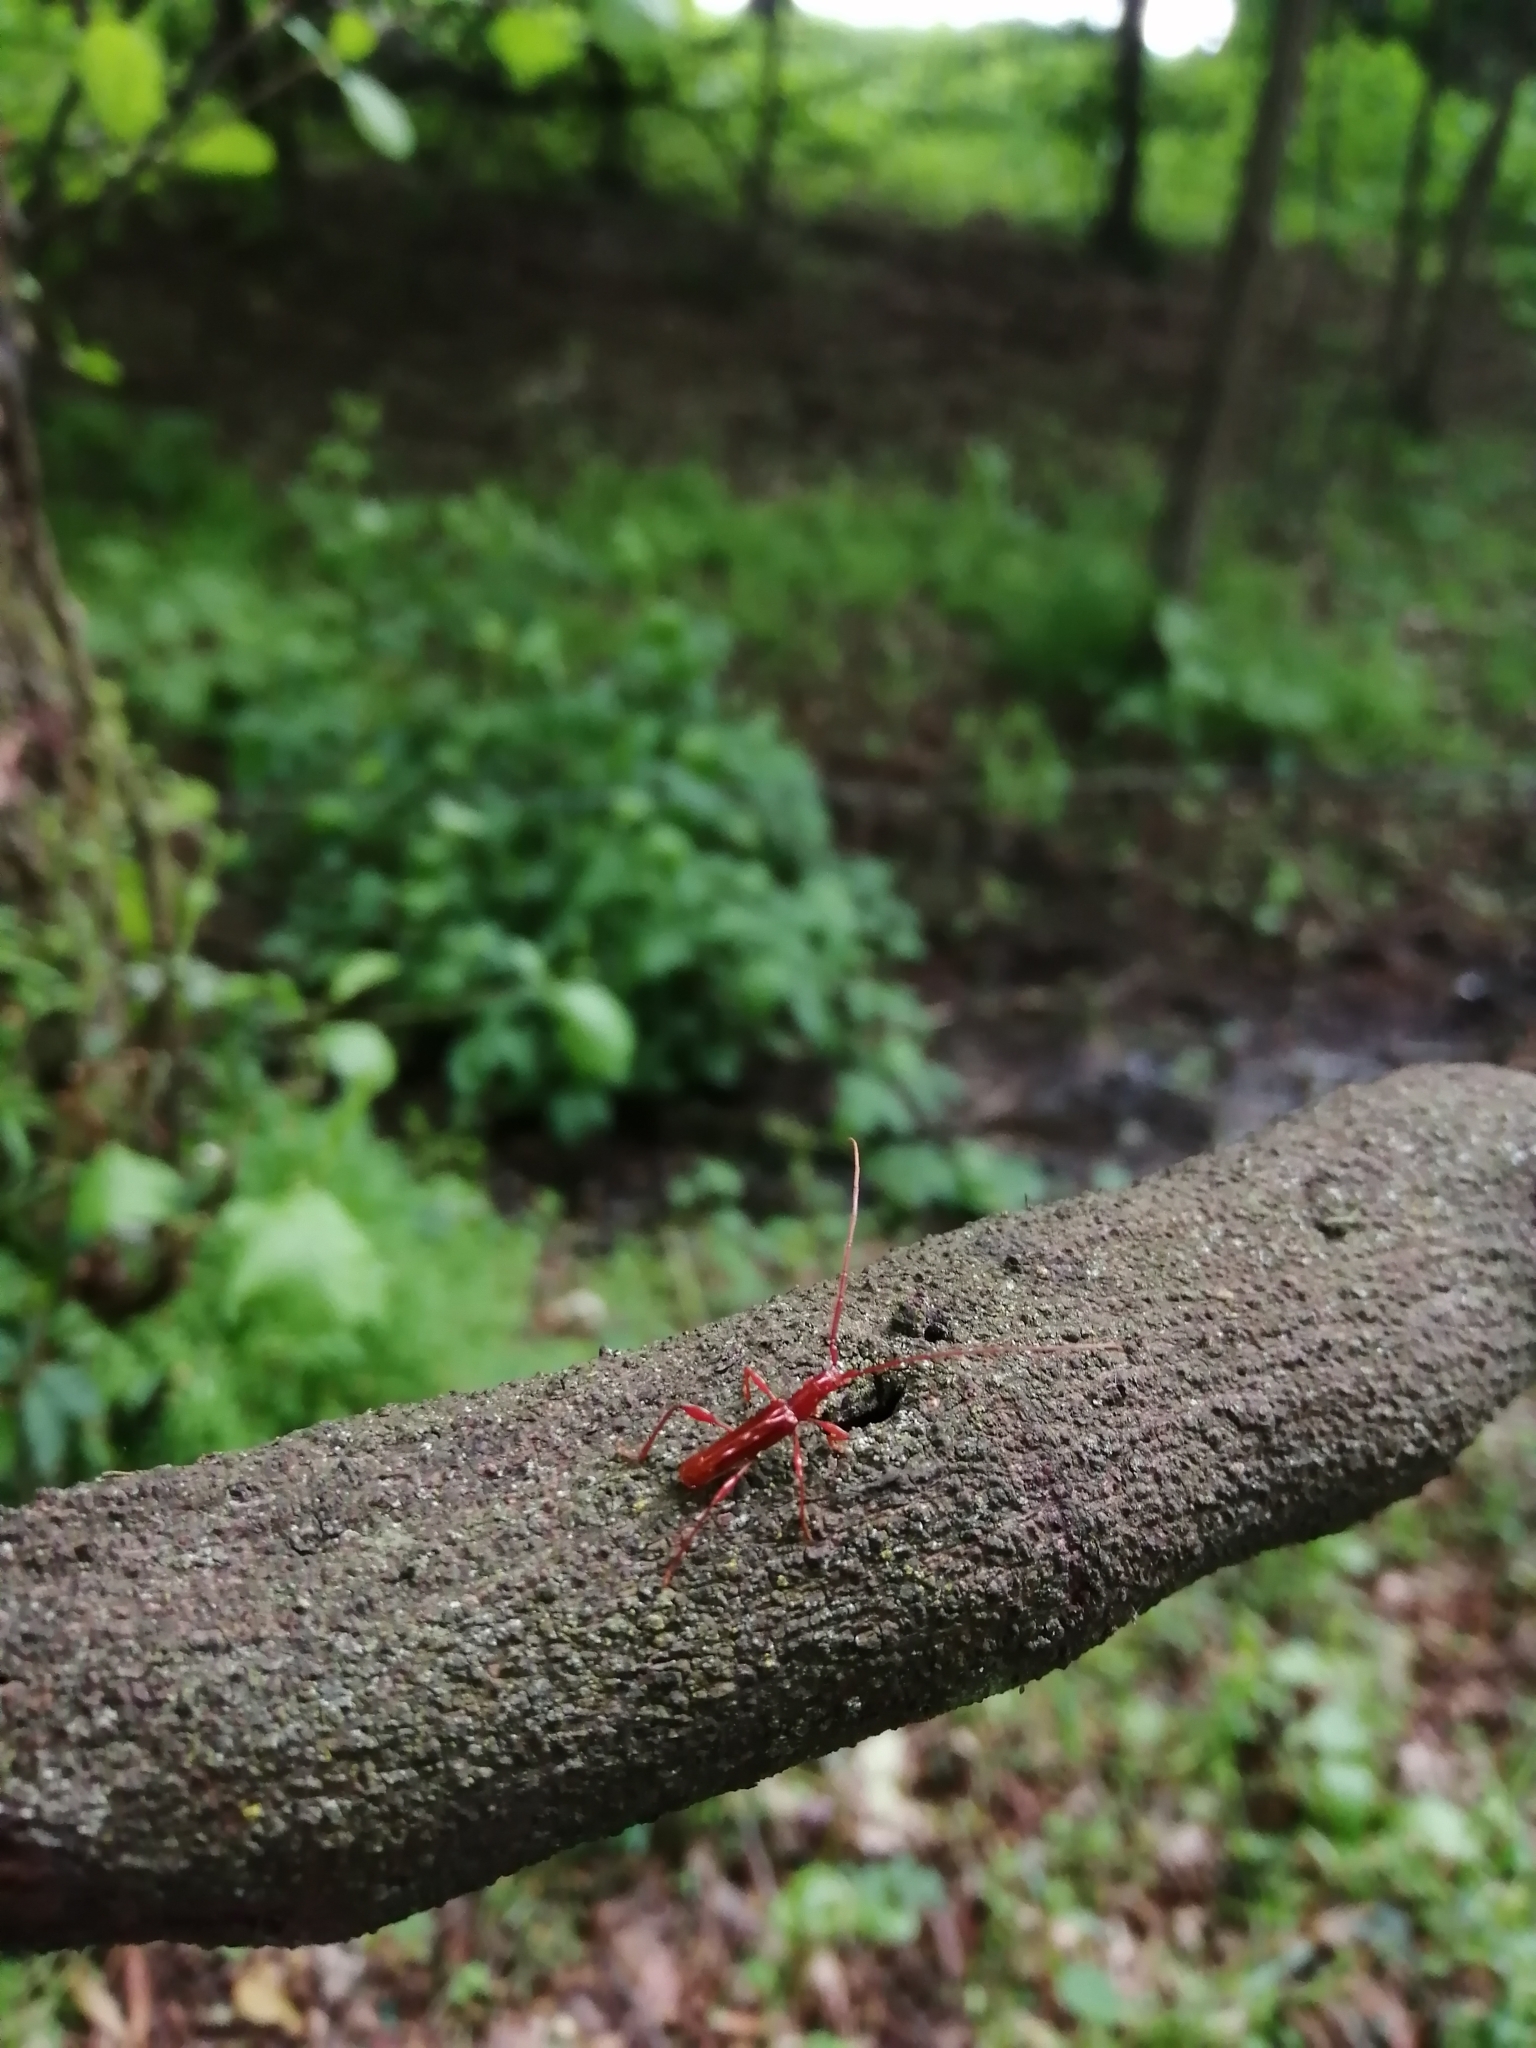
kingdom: Animalia
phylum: Arthropoda
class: Insecta
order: Coleoptera
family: Cerambycidae
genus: Chenoderus
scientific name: Chenoderus testaceus
